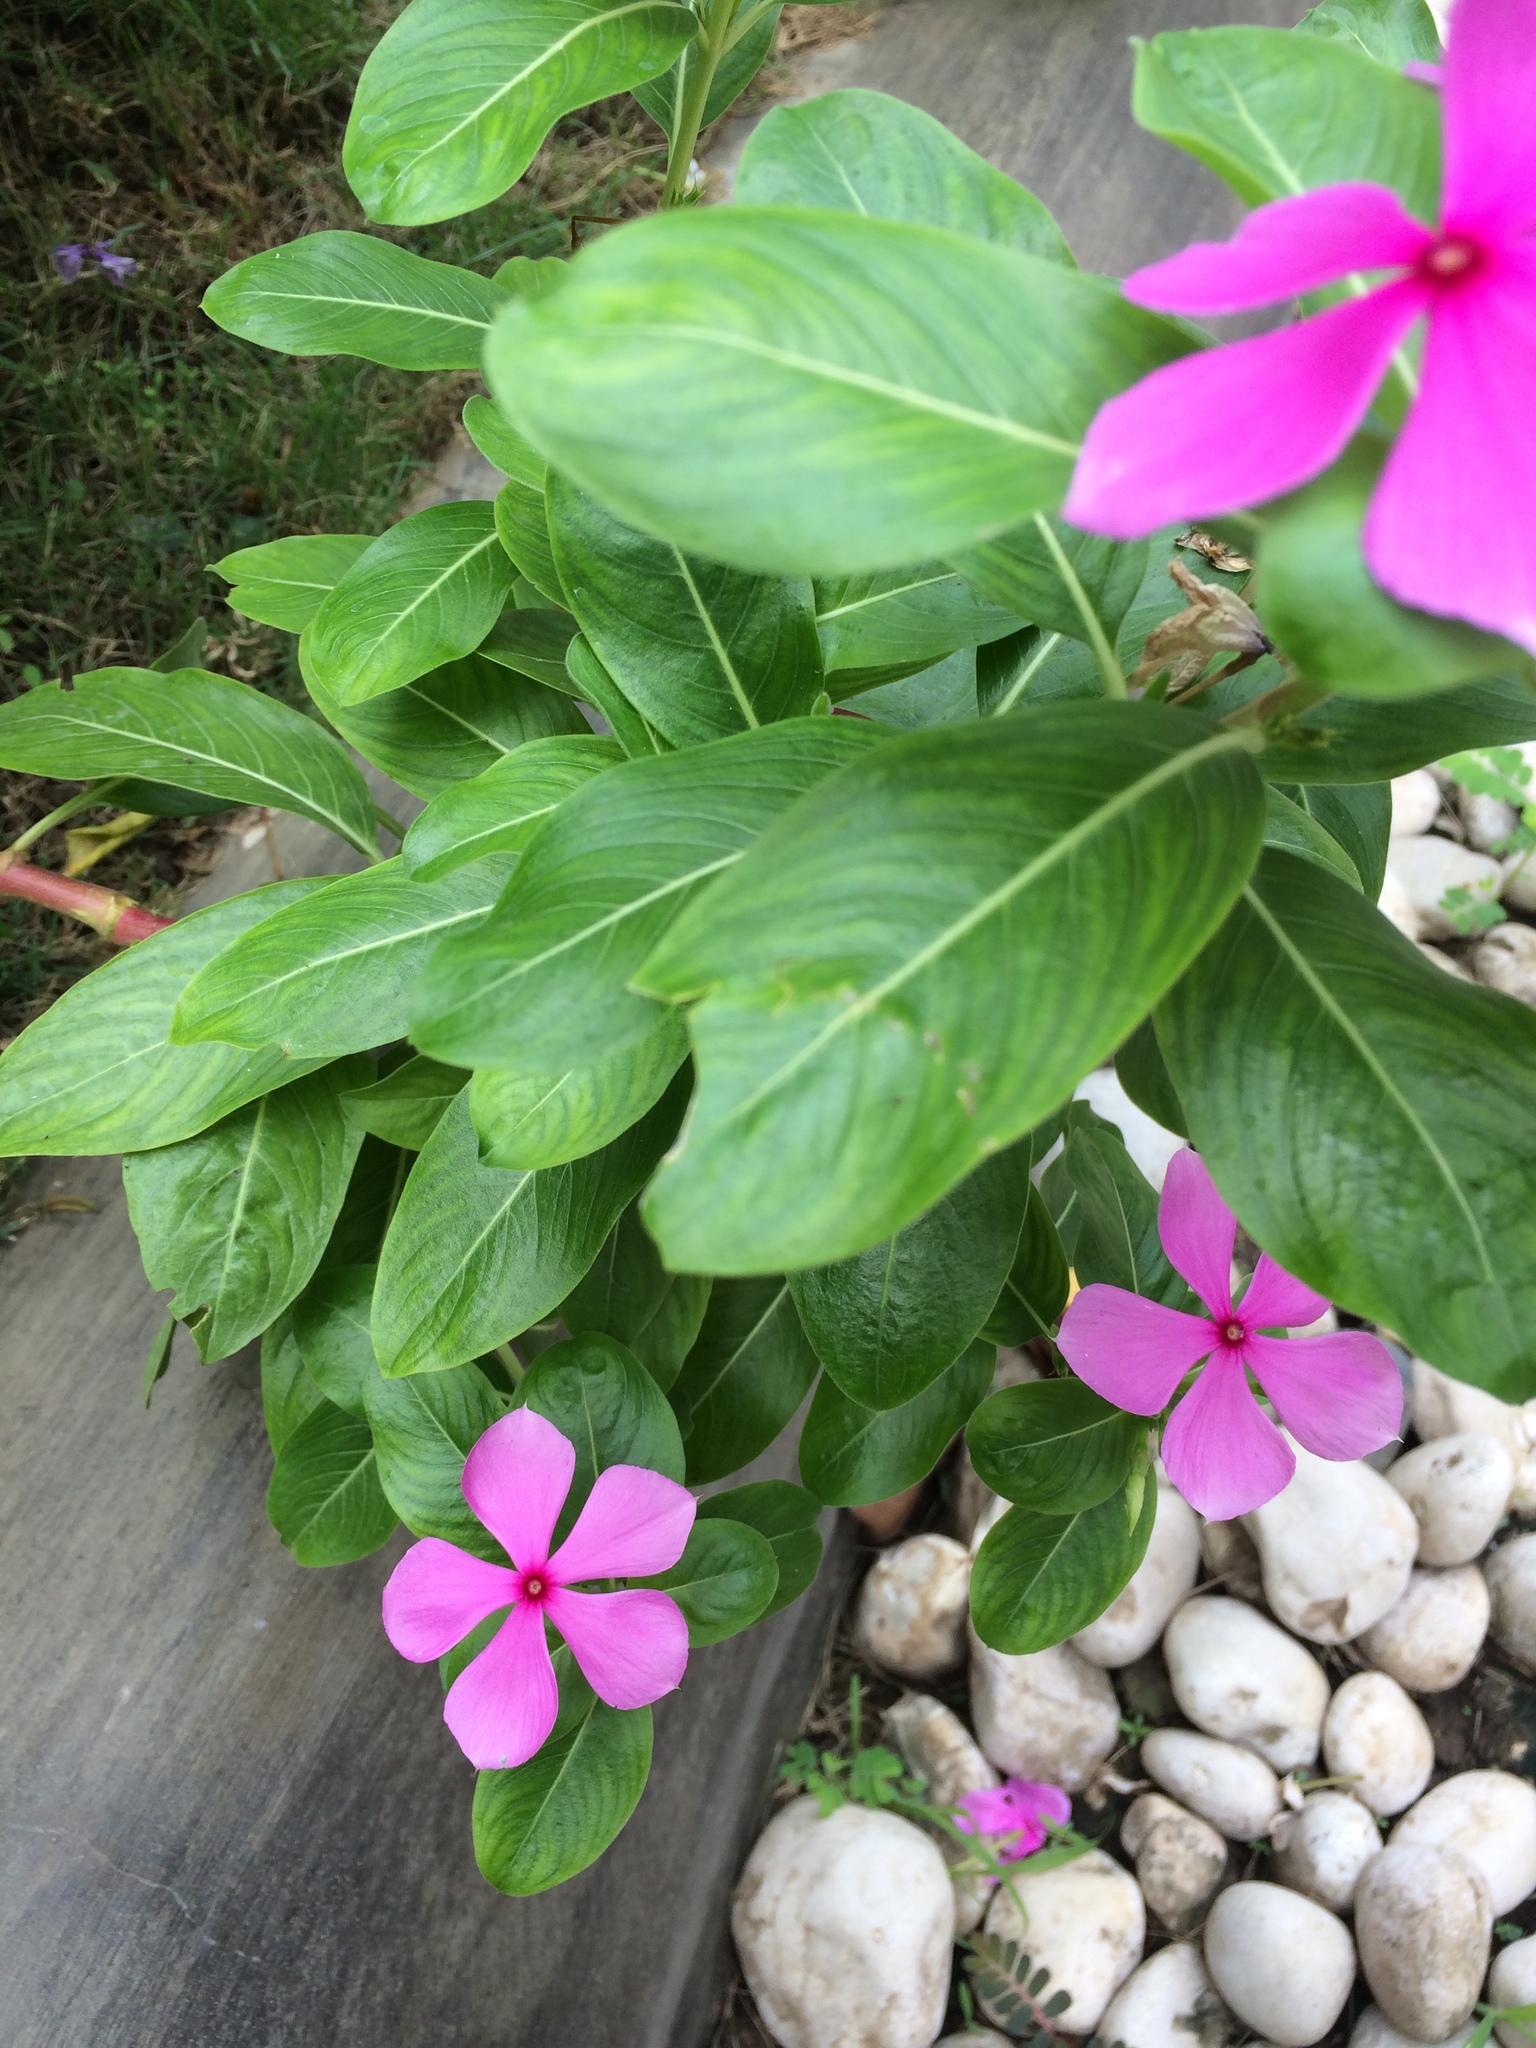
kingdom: Plantae
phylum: Tracheophyta
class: Magnoliopsida
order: Gentianales
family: Apocynaceae
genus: Catharanthus
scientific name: Catharanthus roseus
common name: Madagascar periwinkle
